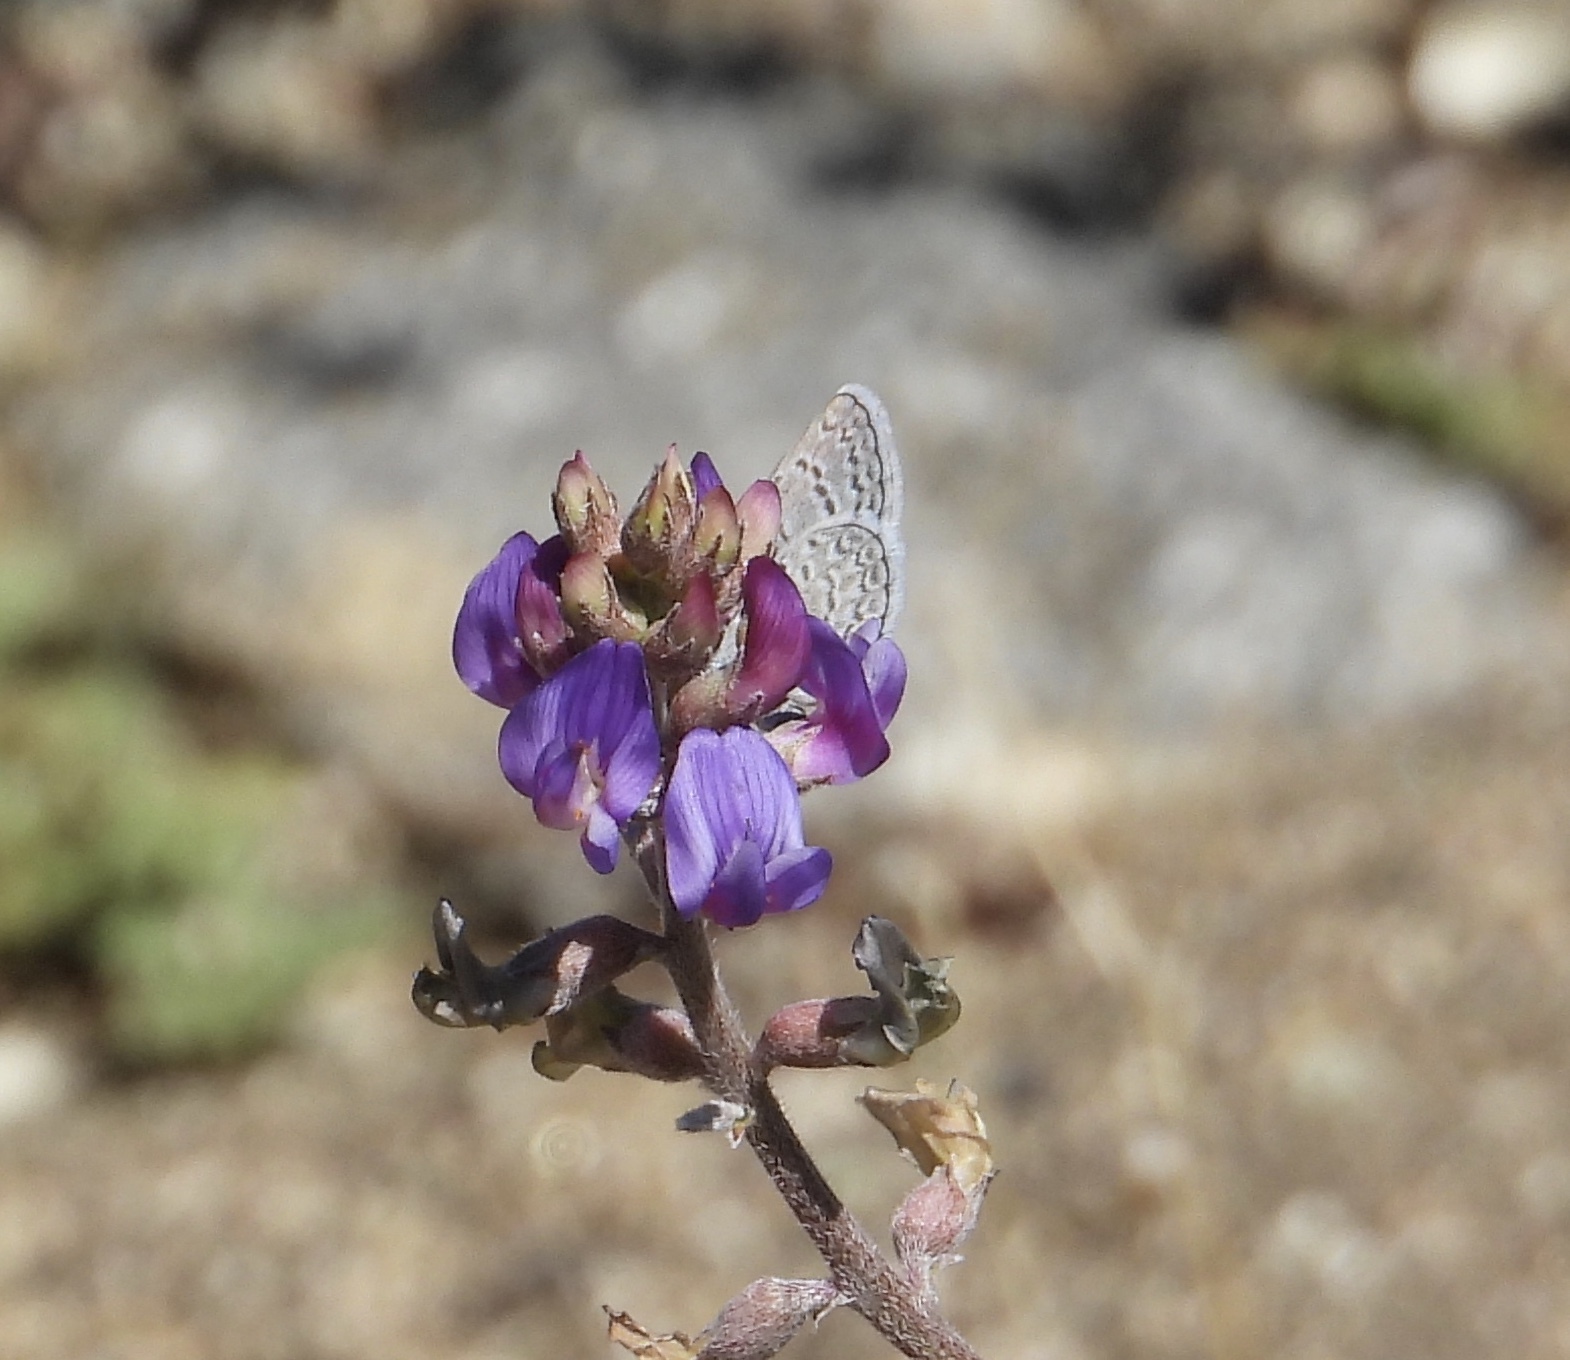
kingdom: Animalia
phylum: Arthropoda
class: Insecta
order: Lepidoptera
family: Lycaenidae
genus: Hemiargus
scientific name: Hemiargus ceraunus
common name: Ceraunus blue
